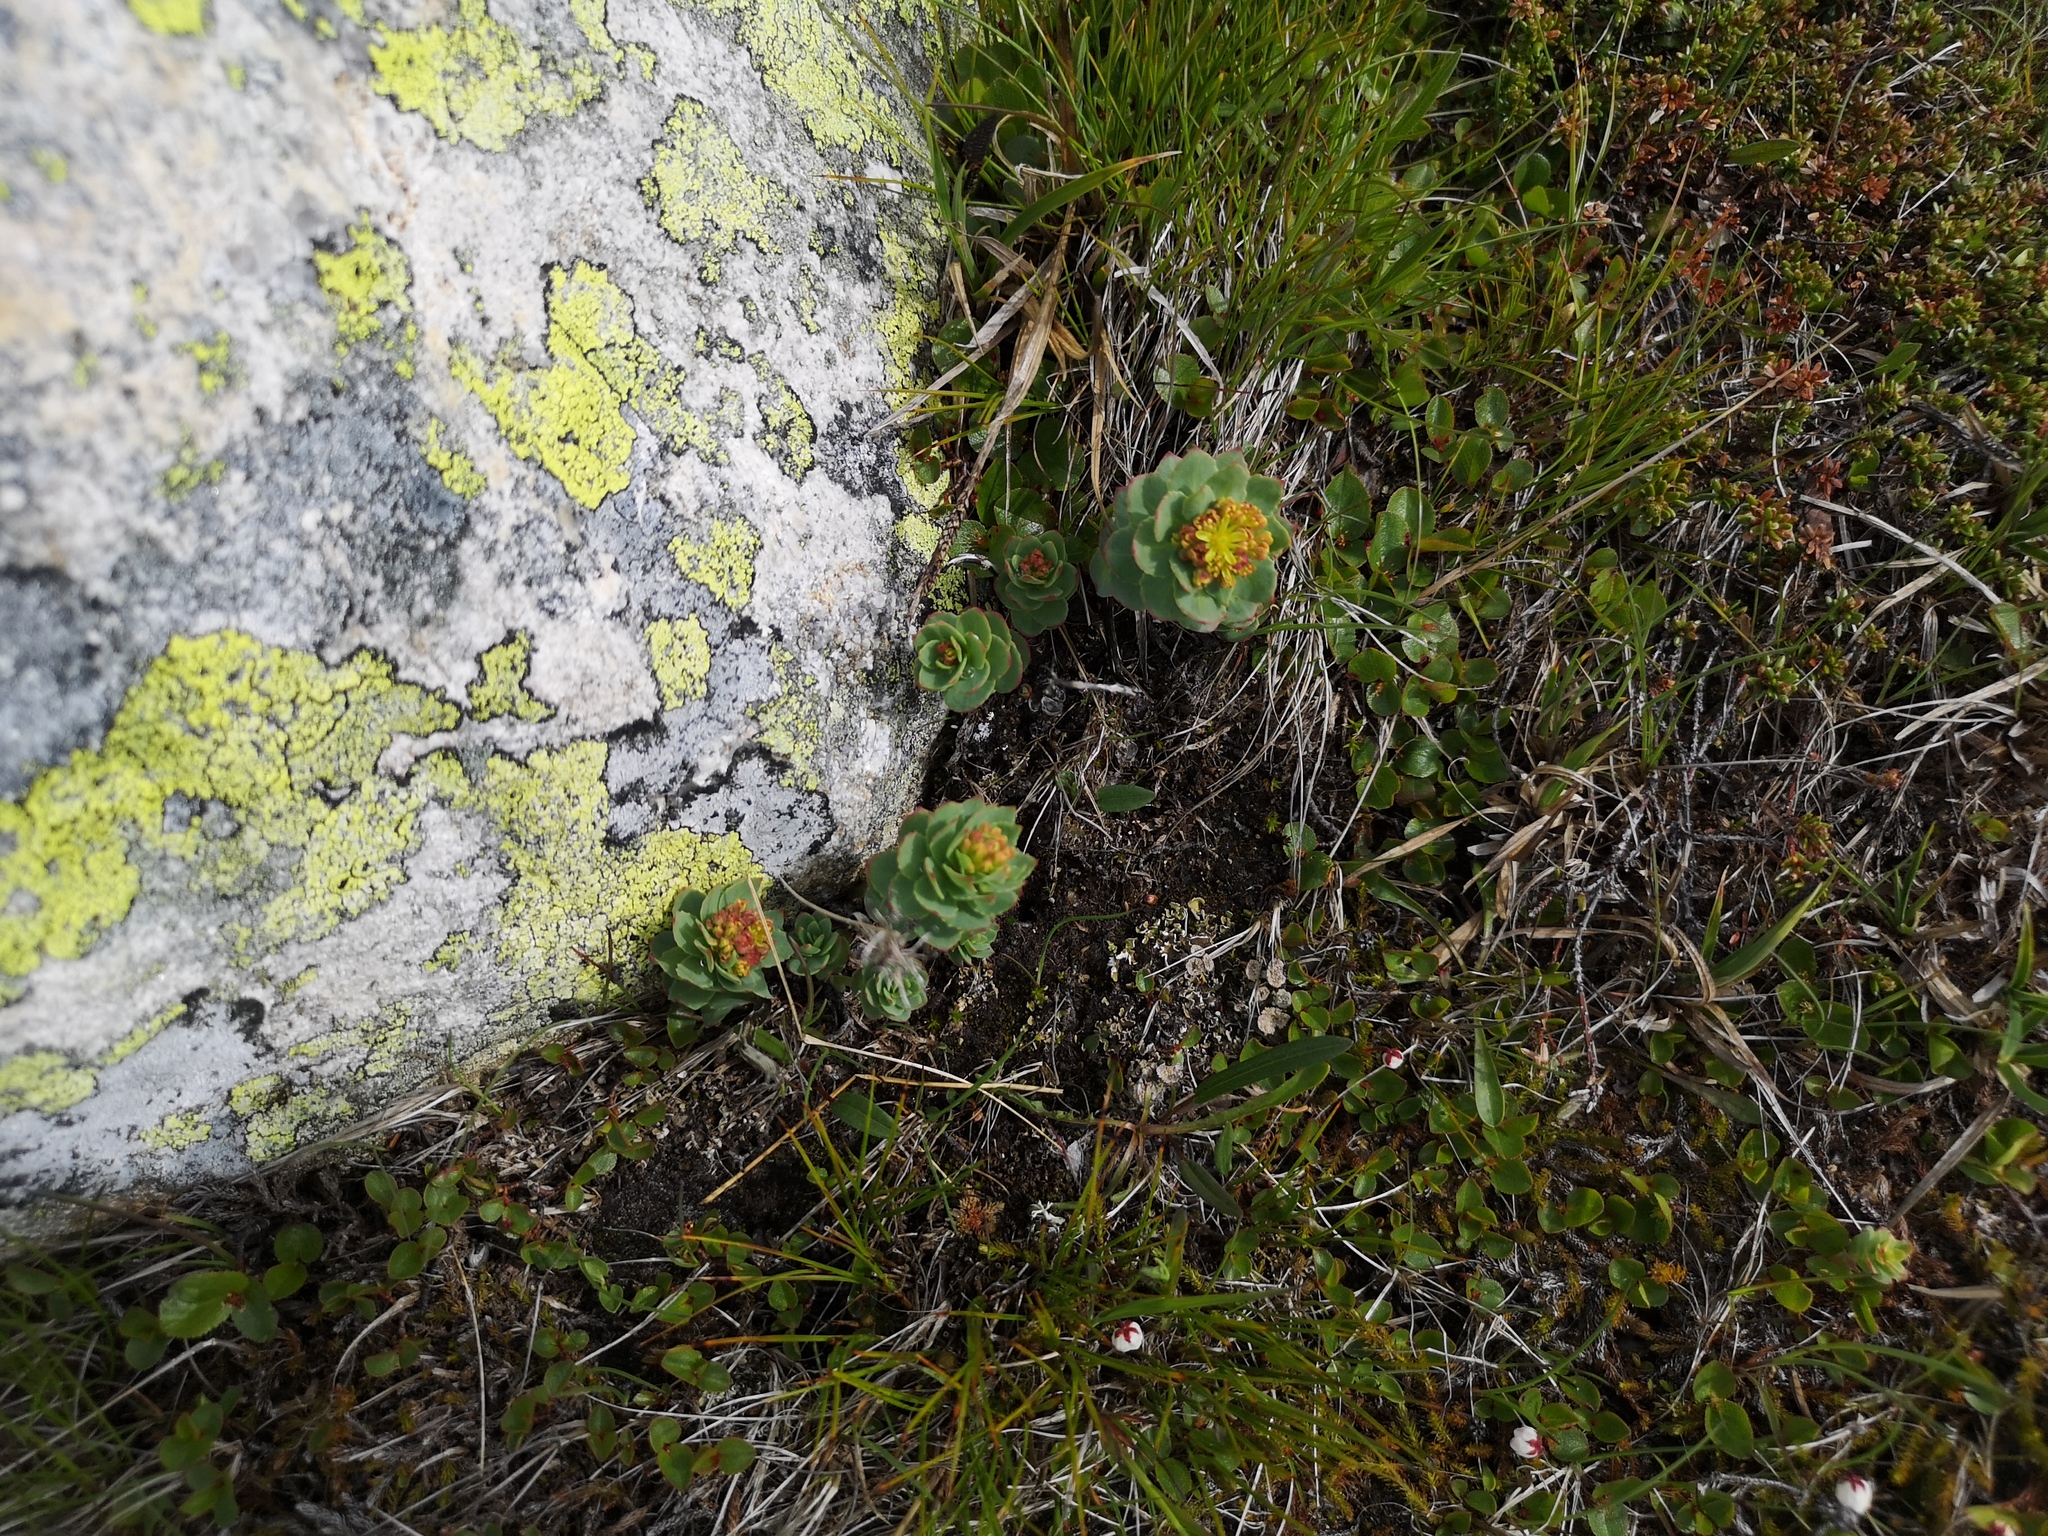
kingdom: Plantae
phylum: Tracheophyta
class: Magnoliopsida
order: Saxifragales
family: Crassulaceae
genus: Rhodiola
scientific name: Rhodiola rosea
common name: Roseroot
